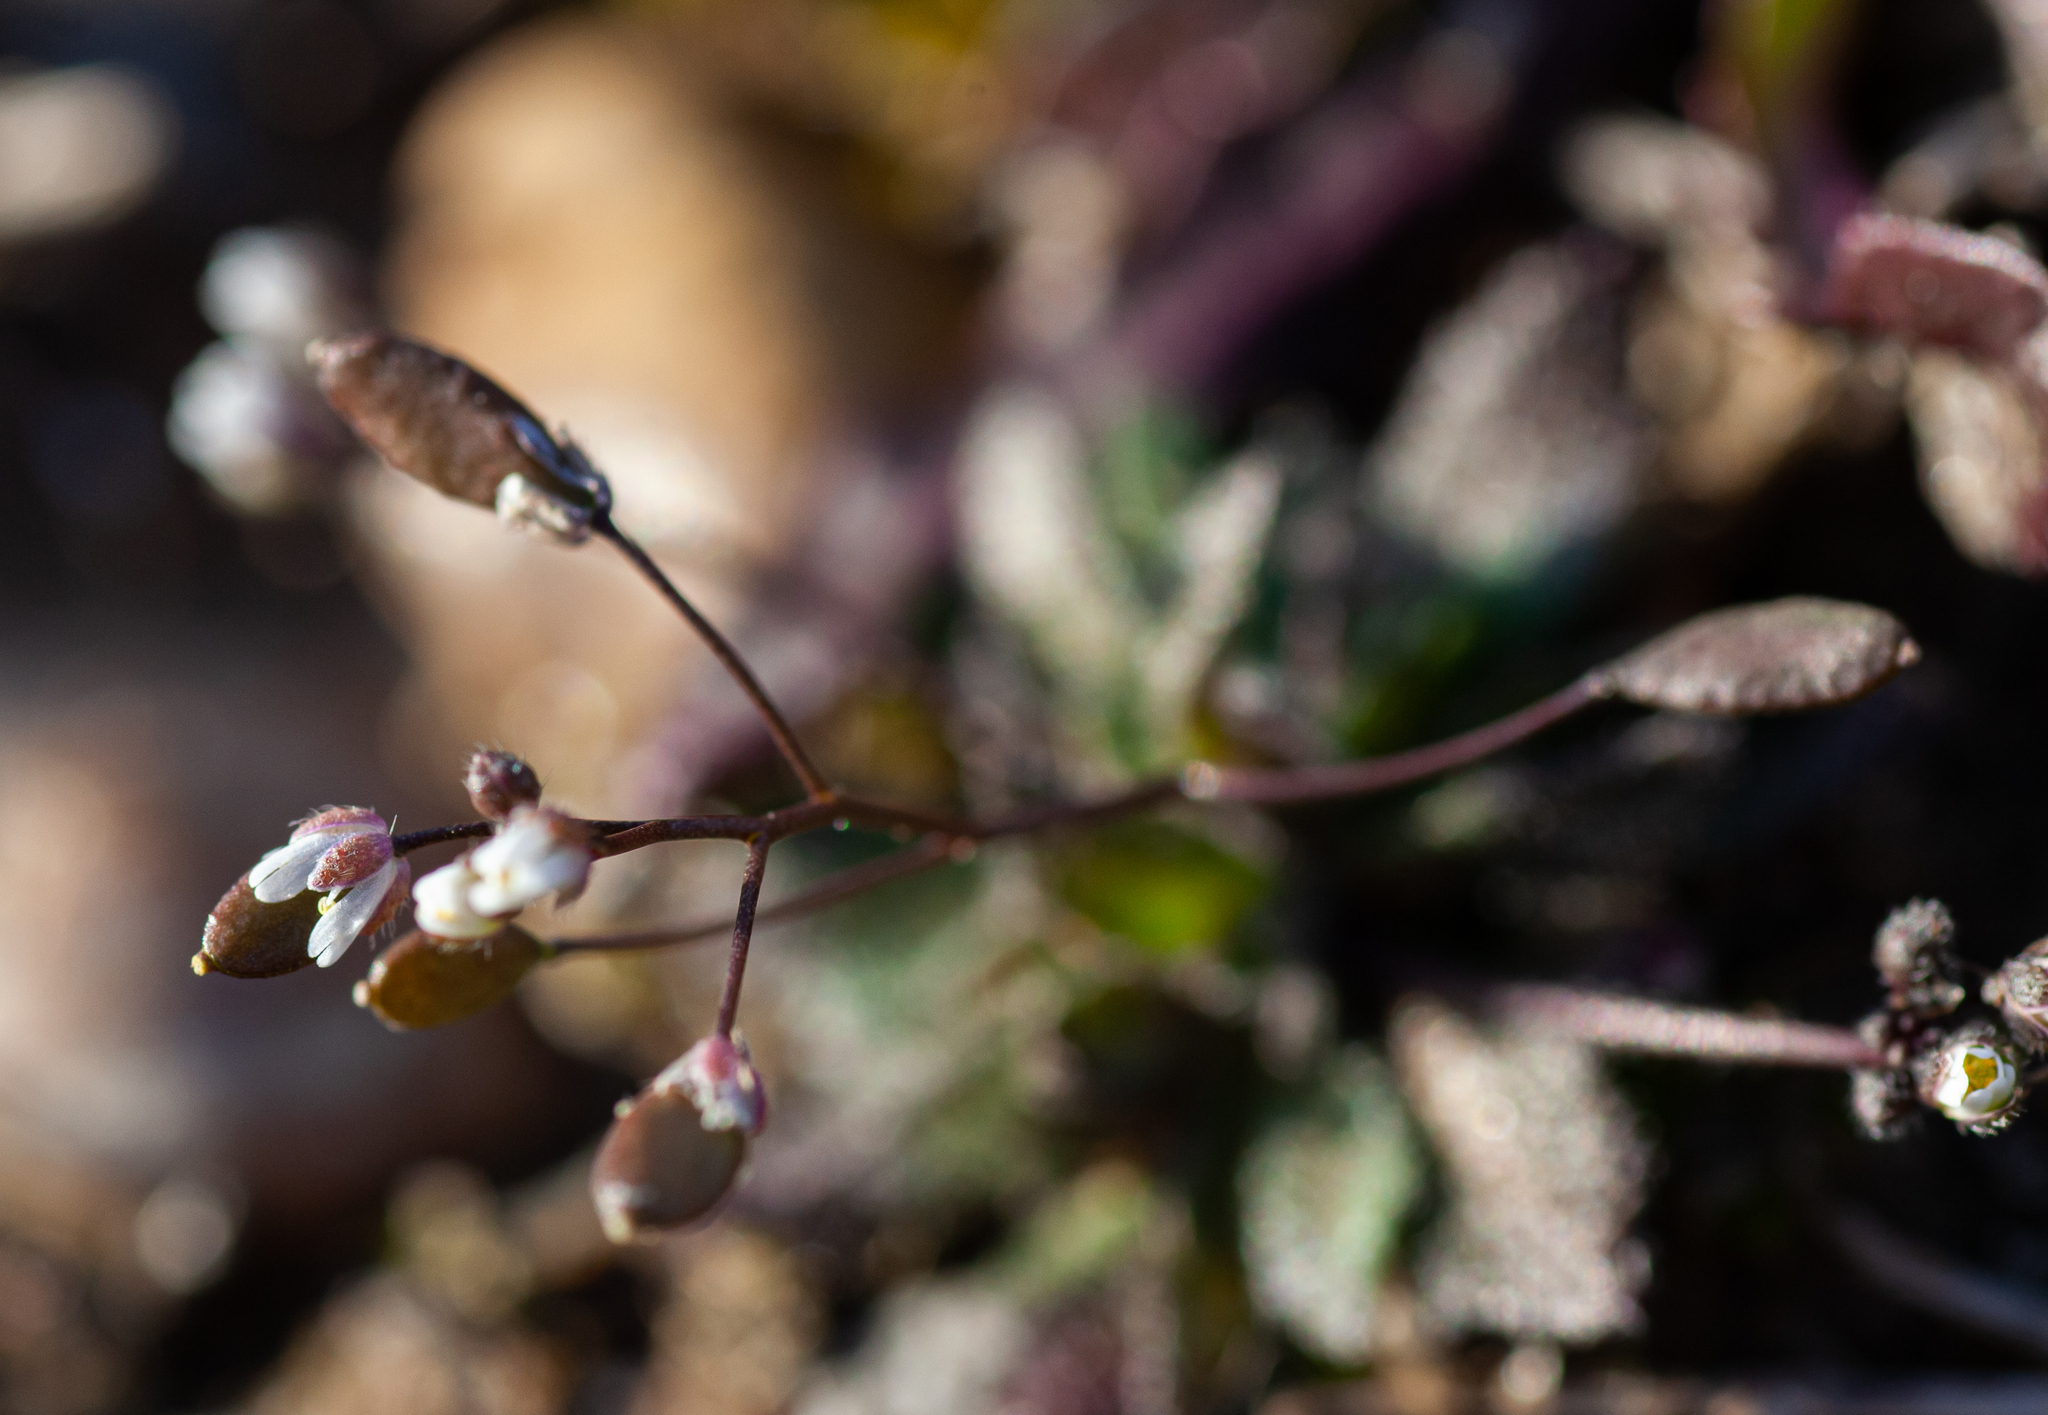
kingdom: Plantae
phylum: Tracheophyta
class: Magnoliopsida
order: Brassicales
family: Brassicaceae
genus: Draba
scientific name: Draba verna
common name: Spring draba
